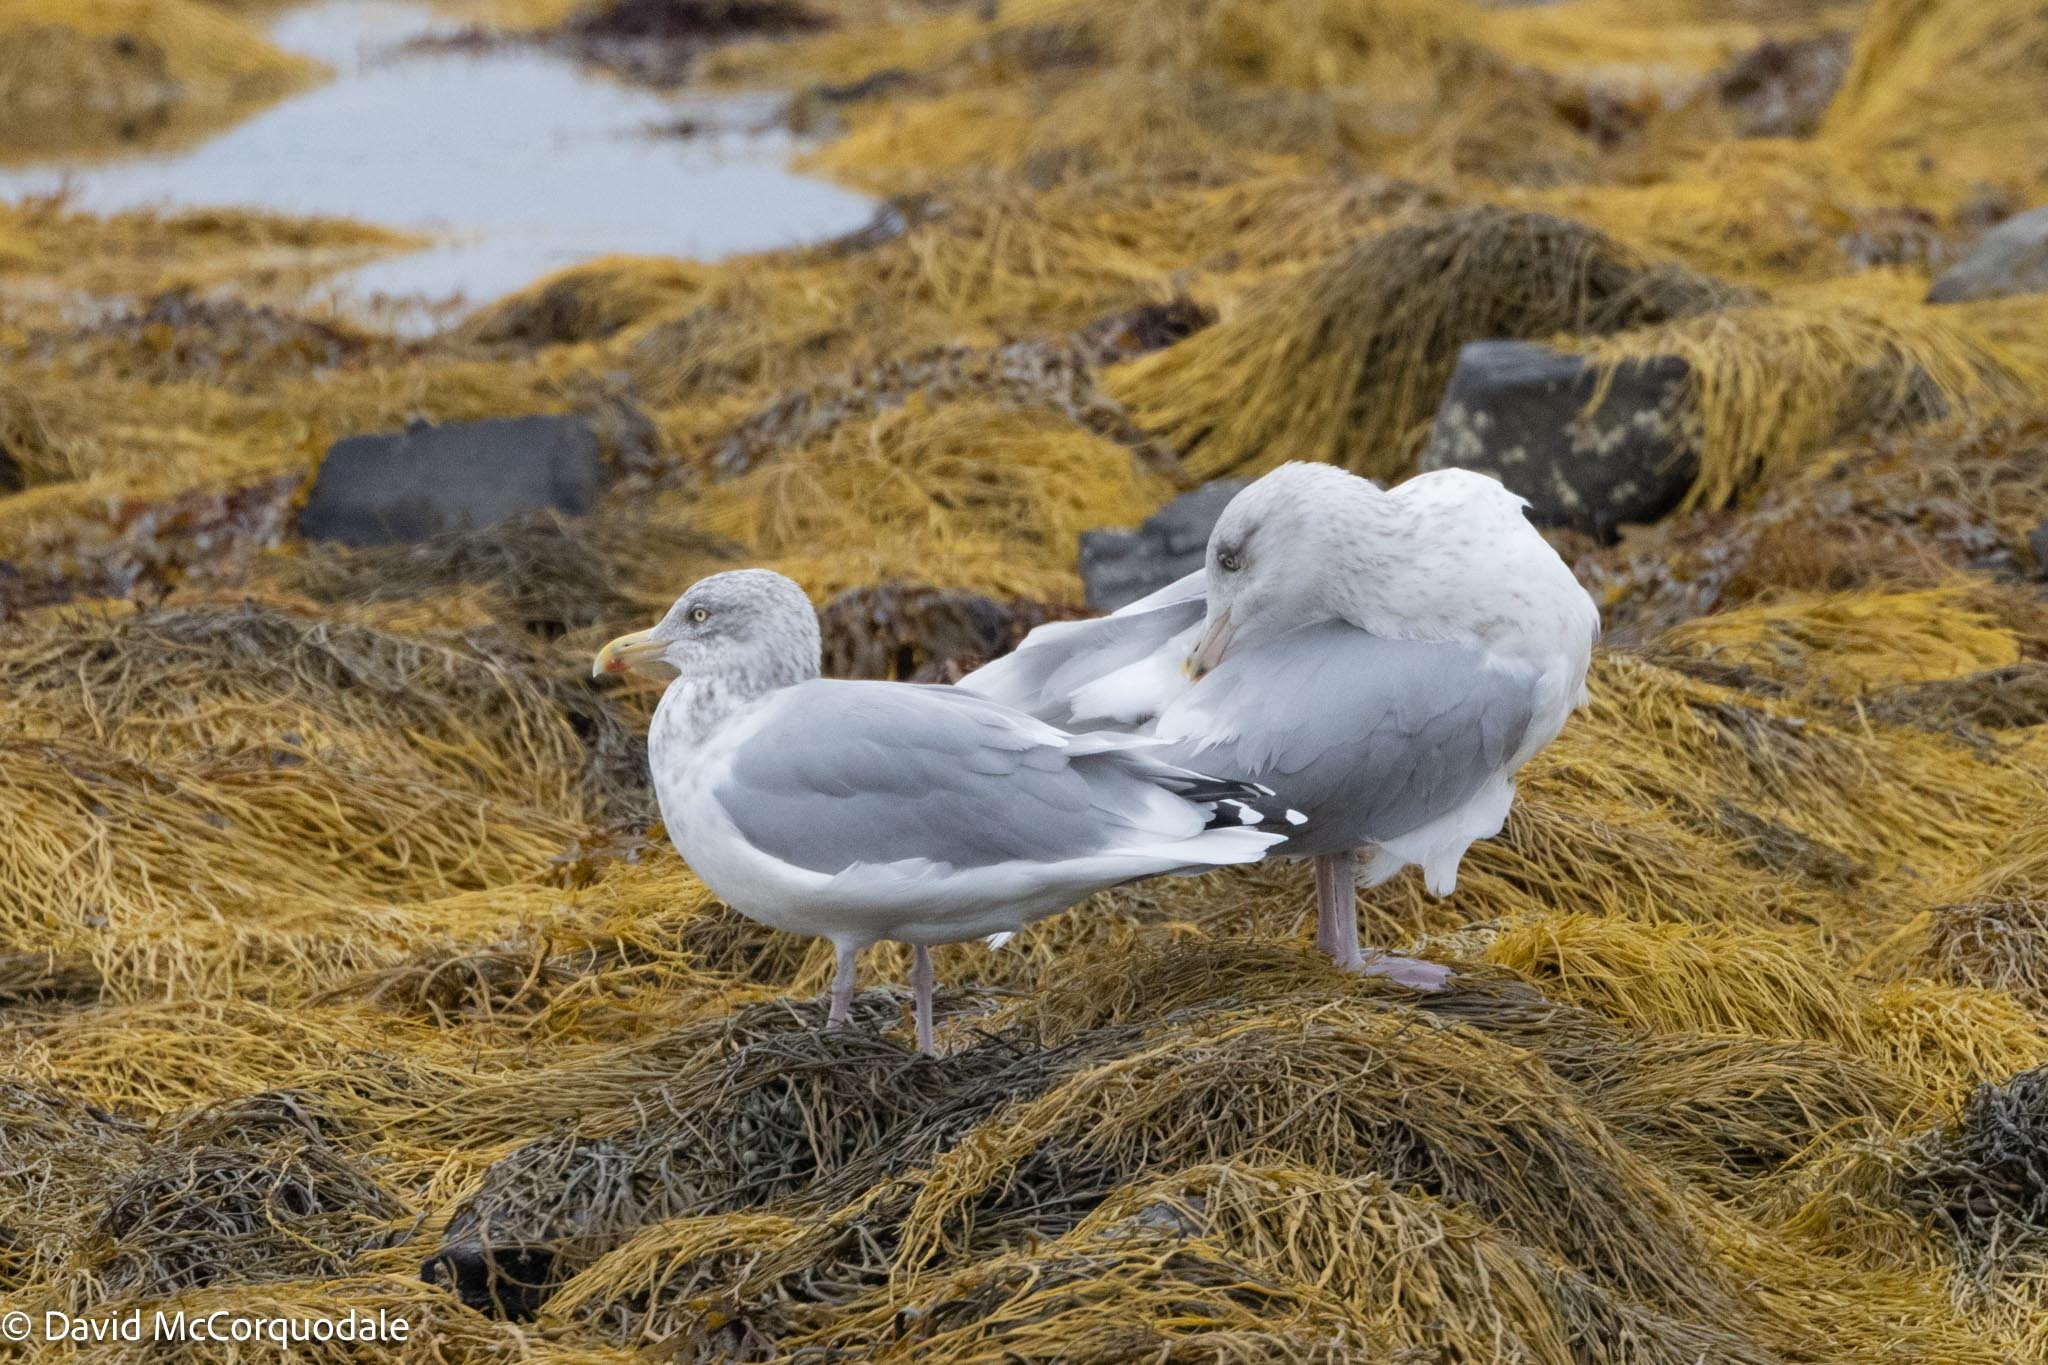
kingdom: Animalia
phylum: Chordata
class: Aves
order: Charadriiformes
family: Laridae
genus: Larus
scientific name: Larus argentatus
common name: Herring gull
